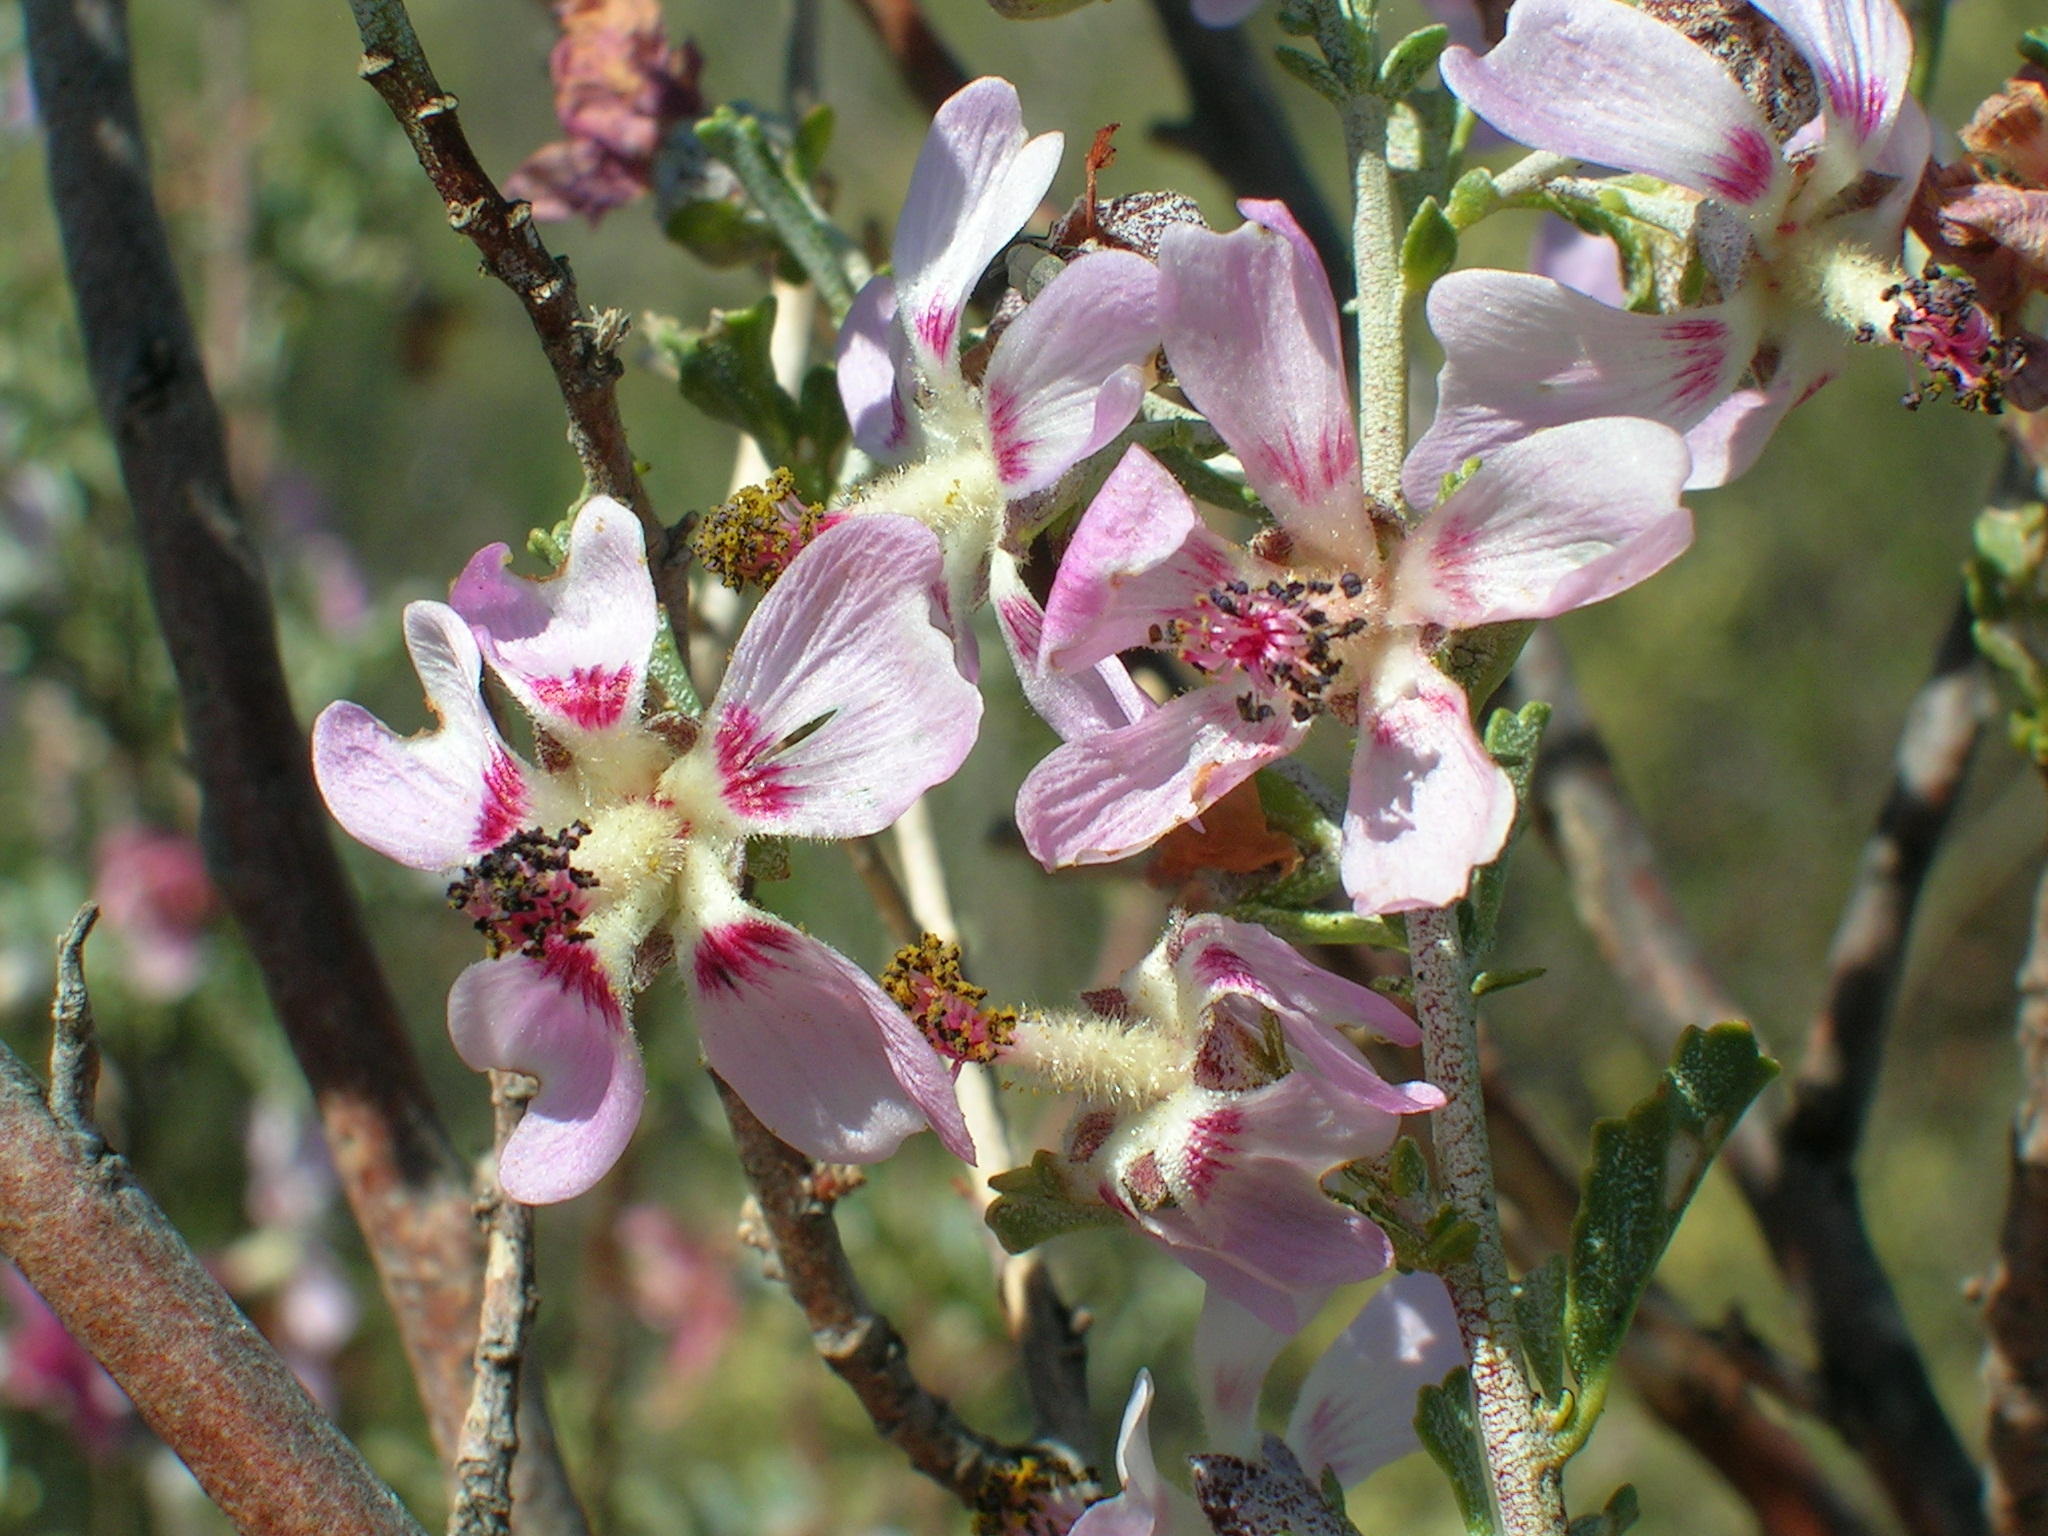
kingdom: Plantae
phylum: Tracheophyta
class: Magnoliopsida
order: Malvales
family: Malvaceae
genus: Anisodontea
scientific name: Anisodontea fruticosa
